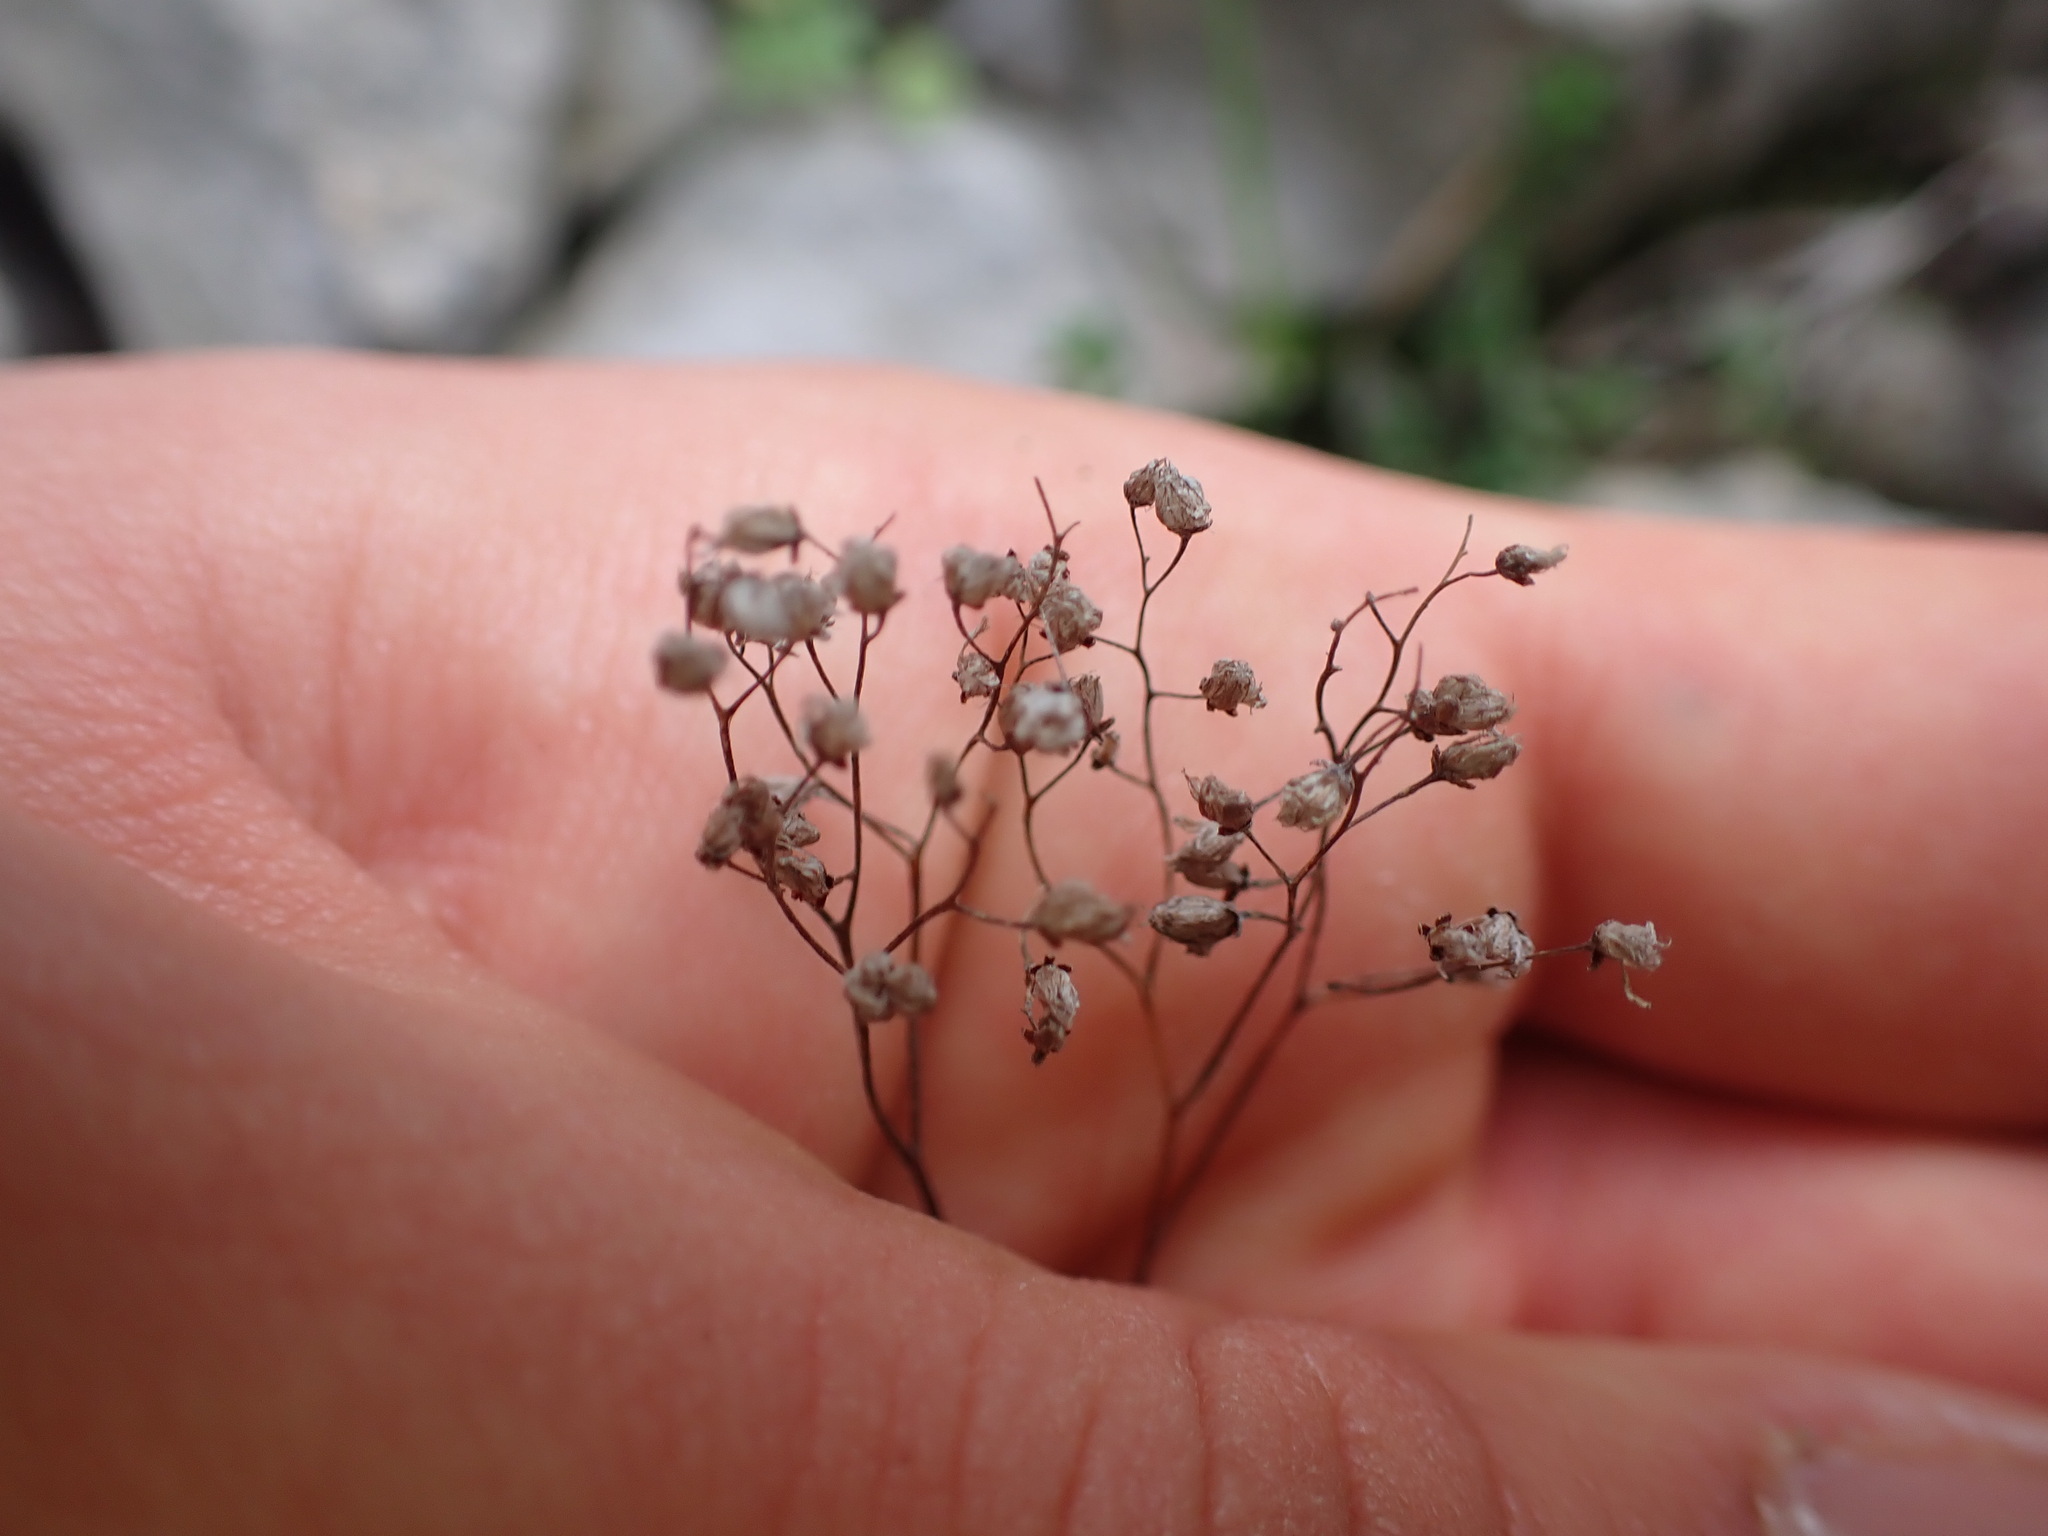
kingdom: Plantae
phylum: Tracheophyta
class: Magnoliopsida
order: Saxifragales
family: Crassulaceae
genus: Sedum
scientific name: Sedum album
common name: White stonecrop
